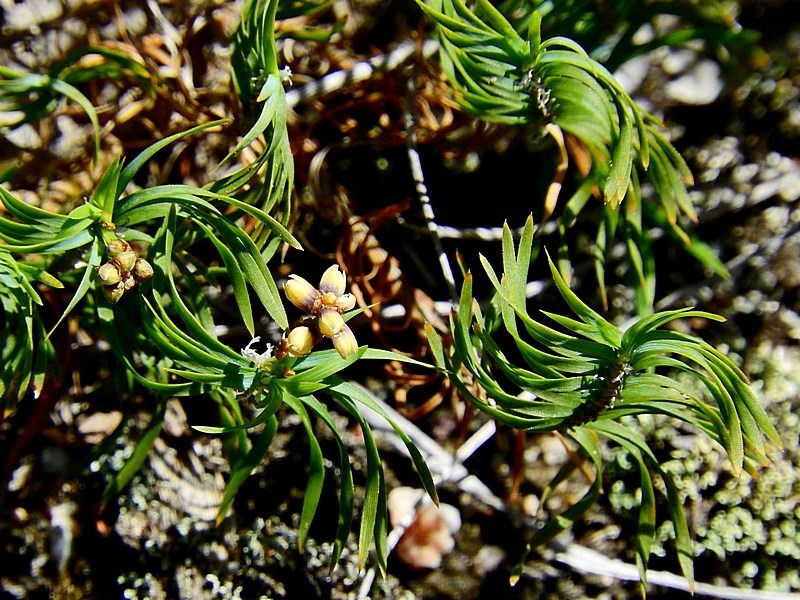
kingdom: Plantae
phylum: Tracheophyta
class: Liliopsida
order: Asparagales
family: Asparagaceae
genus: Lomandra
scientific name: Lomandra obliqua
